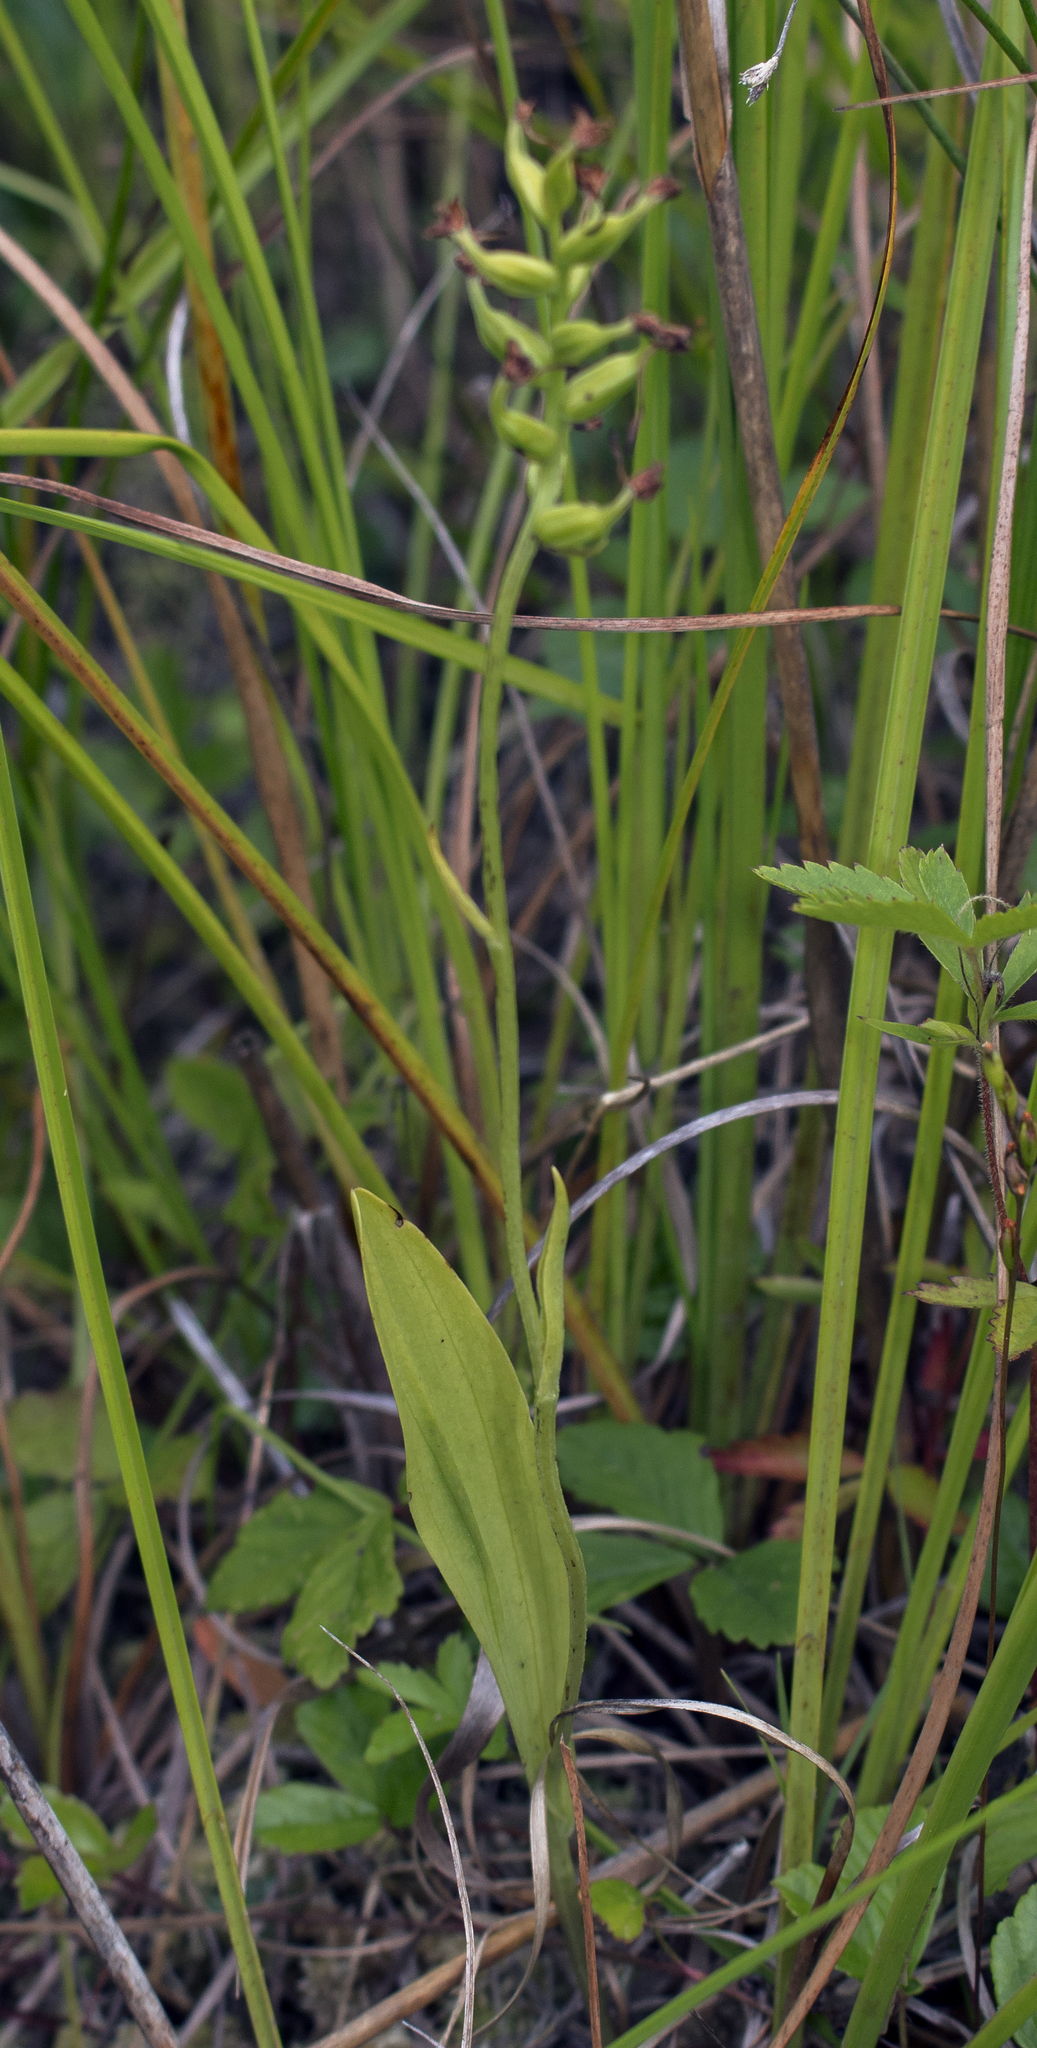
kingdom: Plantae
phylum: Tracheophyta
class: Liliopsida
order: Asparagales
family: Orchidaceae
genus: Platanthera
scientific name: Platanthera clavellata
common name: Club-spur orchid
